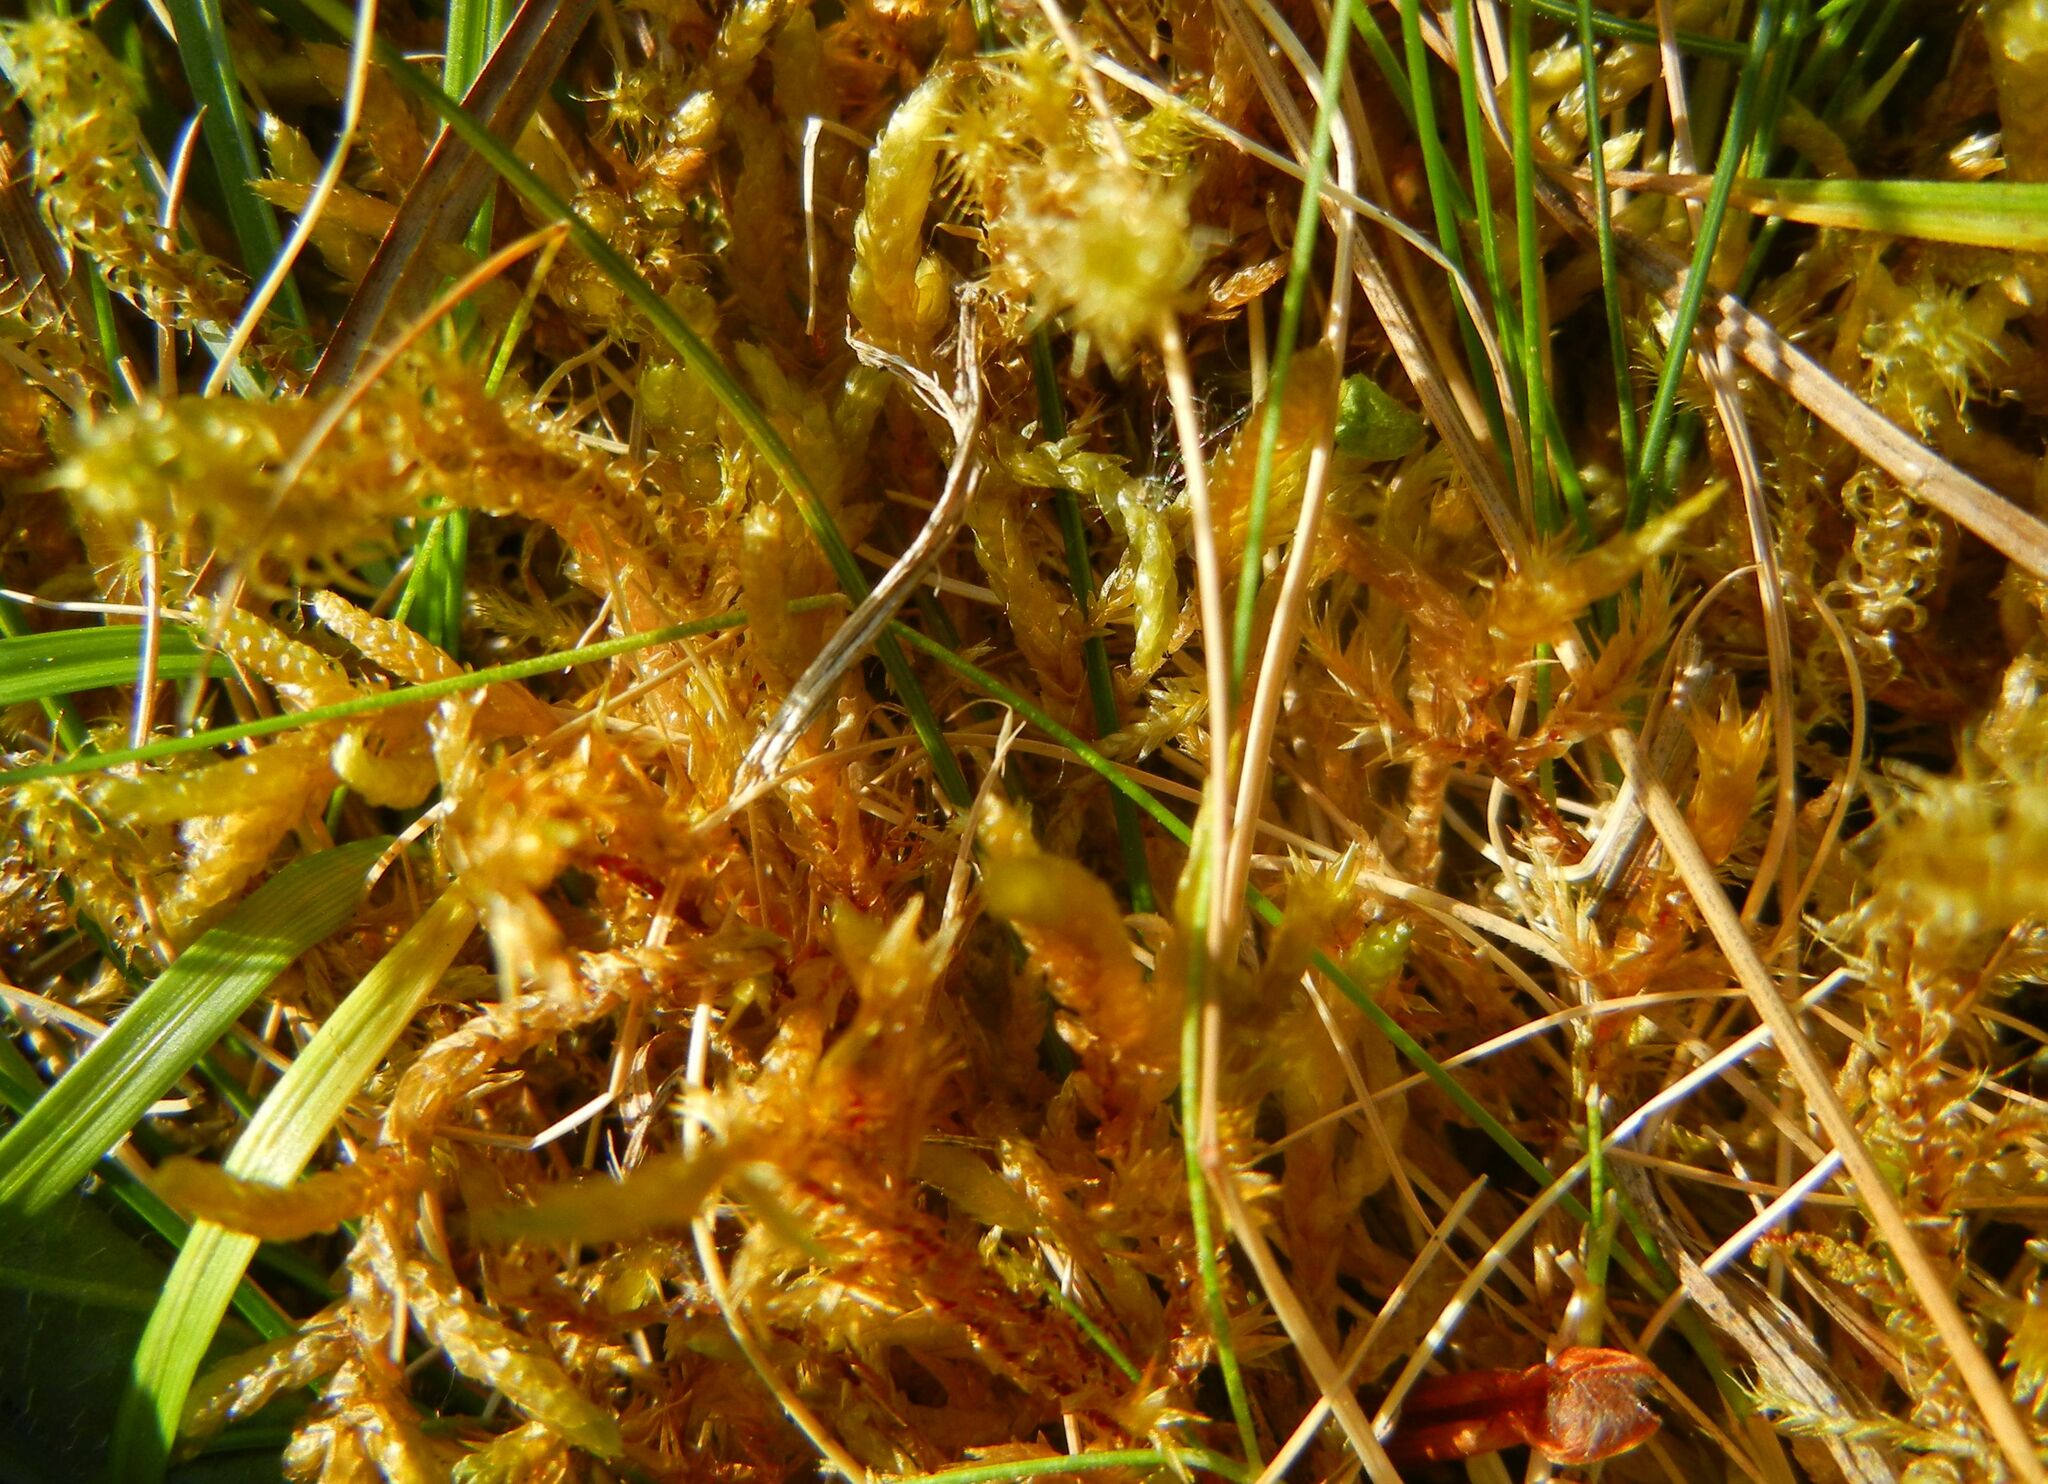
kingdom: Plantae
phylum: Bryophyta
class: Bryopsida
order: Hypnales
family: Hylocomiaceae
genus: Rhytidiadelphus
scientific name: Rhytidiadelphus squarrosus
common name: Springy turf-moss
